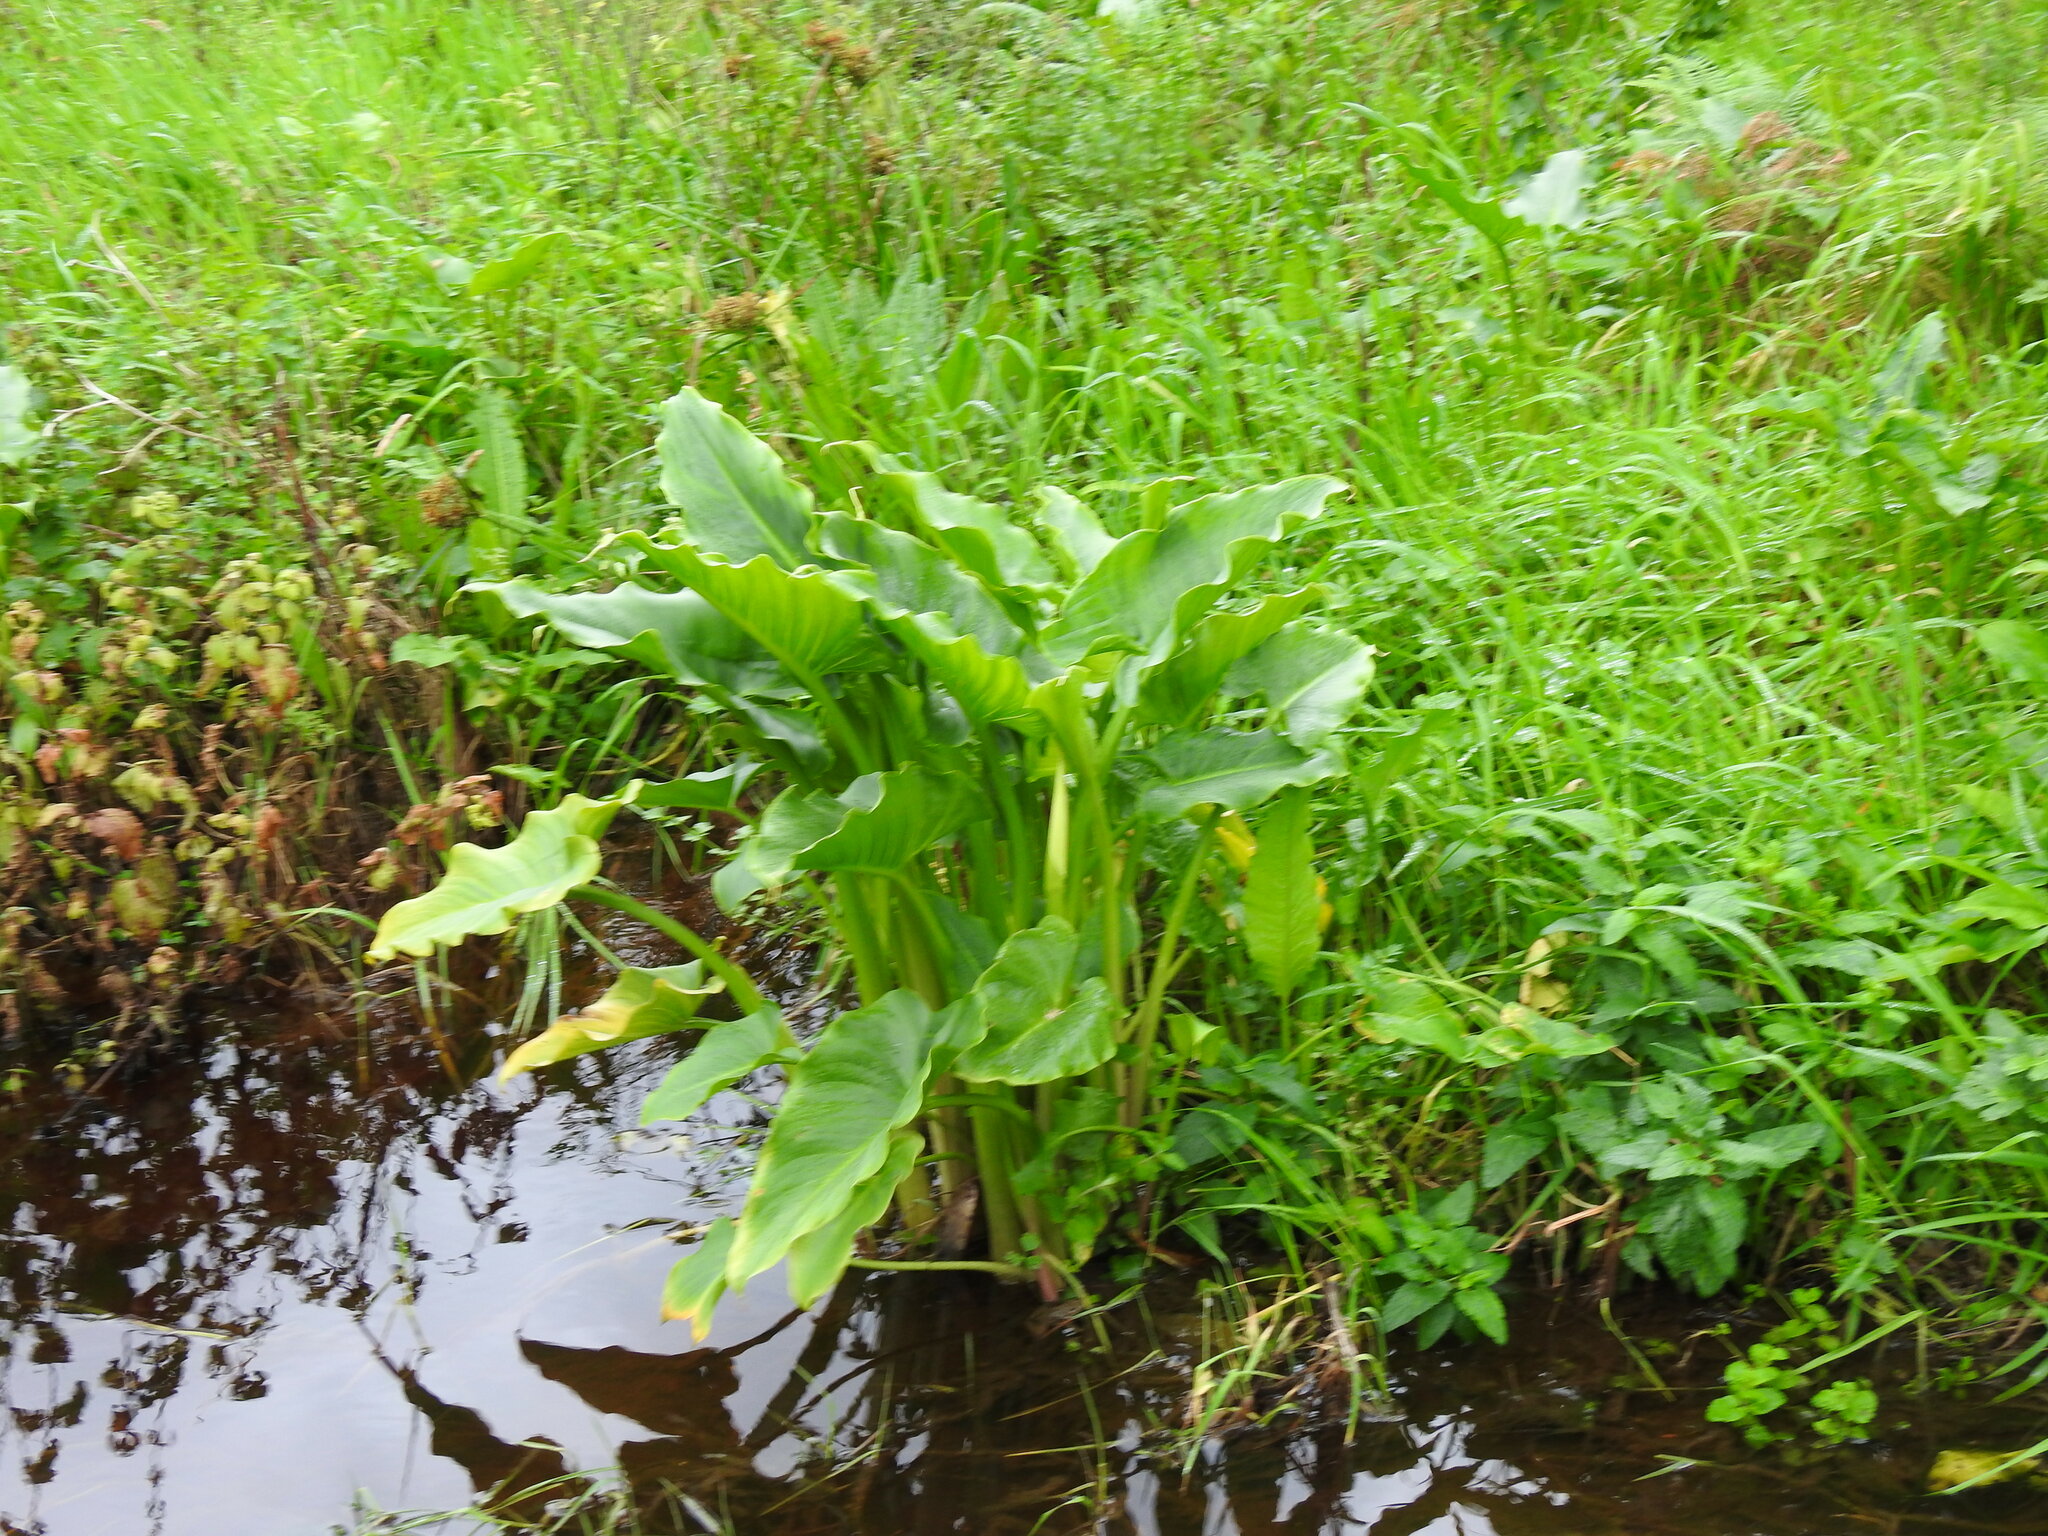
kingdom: Plantae
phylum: Tracheophyta
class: Liliopsida
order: Alismatales
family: Araceae
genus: Zantedeschia
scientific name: Zantedeschia aethiopica
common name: Altar-lily
